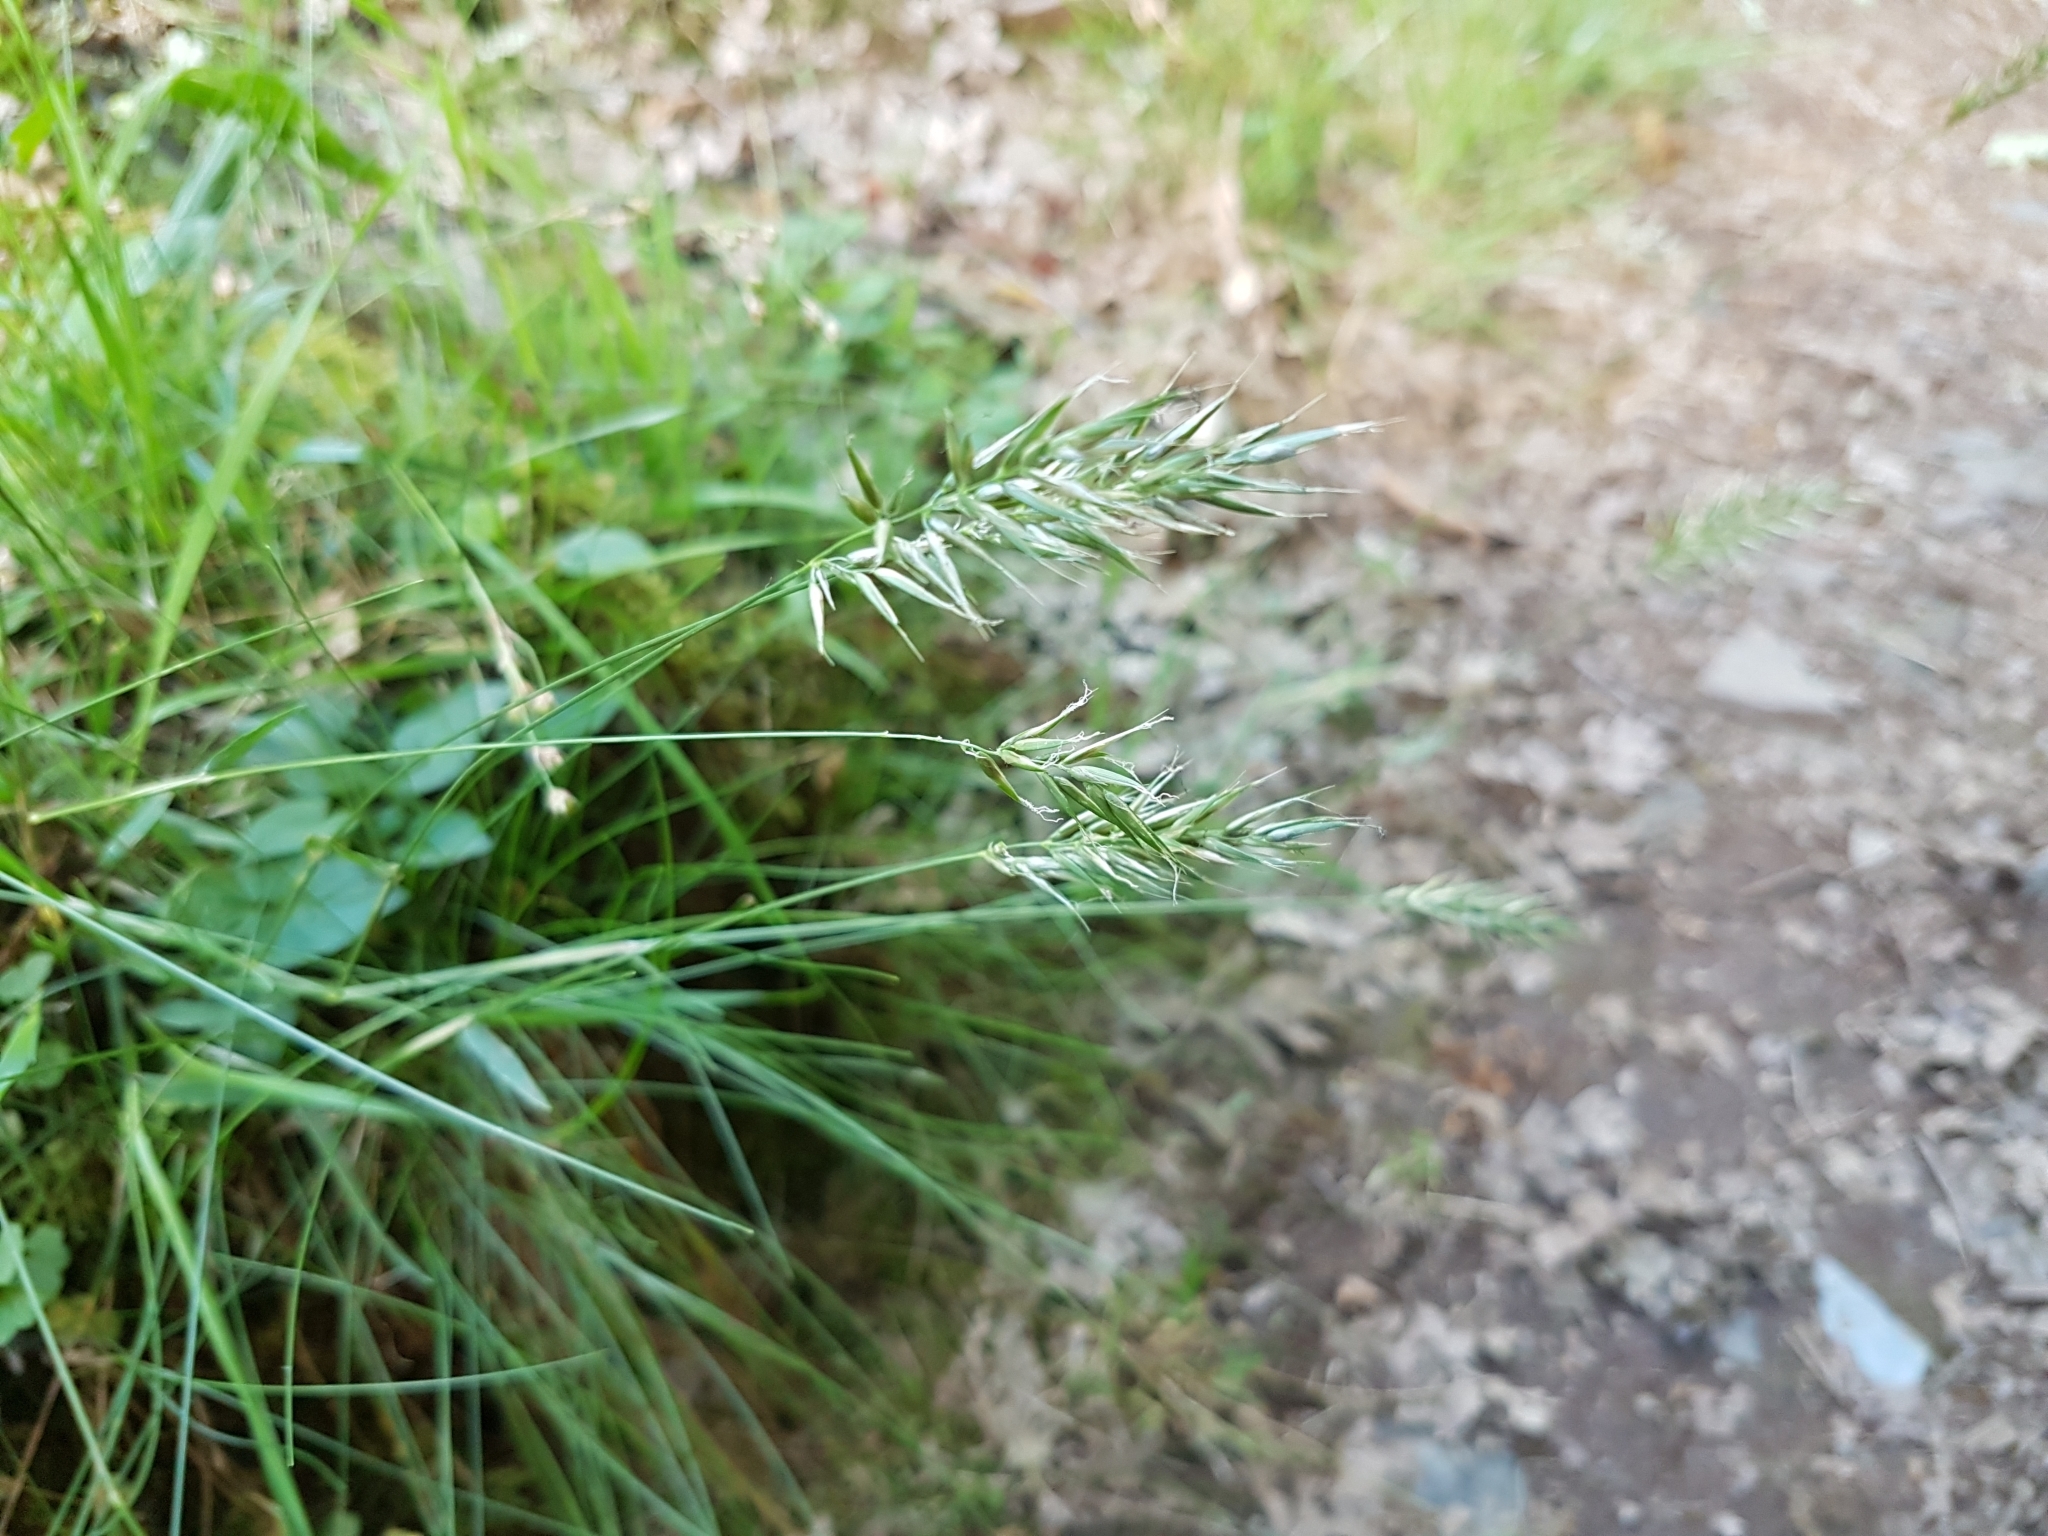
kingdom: Plantae
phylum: Tracheophyta
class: Liliopsida
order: Poales
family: Poaceae
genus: Anthoxanthum
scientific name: Anthoxanthum odoratum
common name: Sweet vernalgrass
